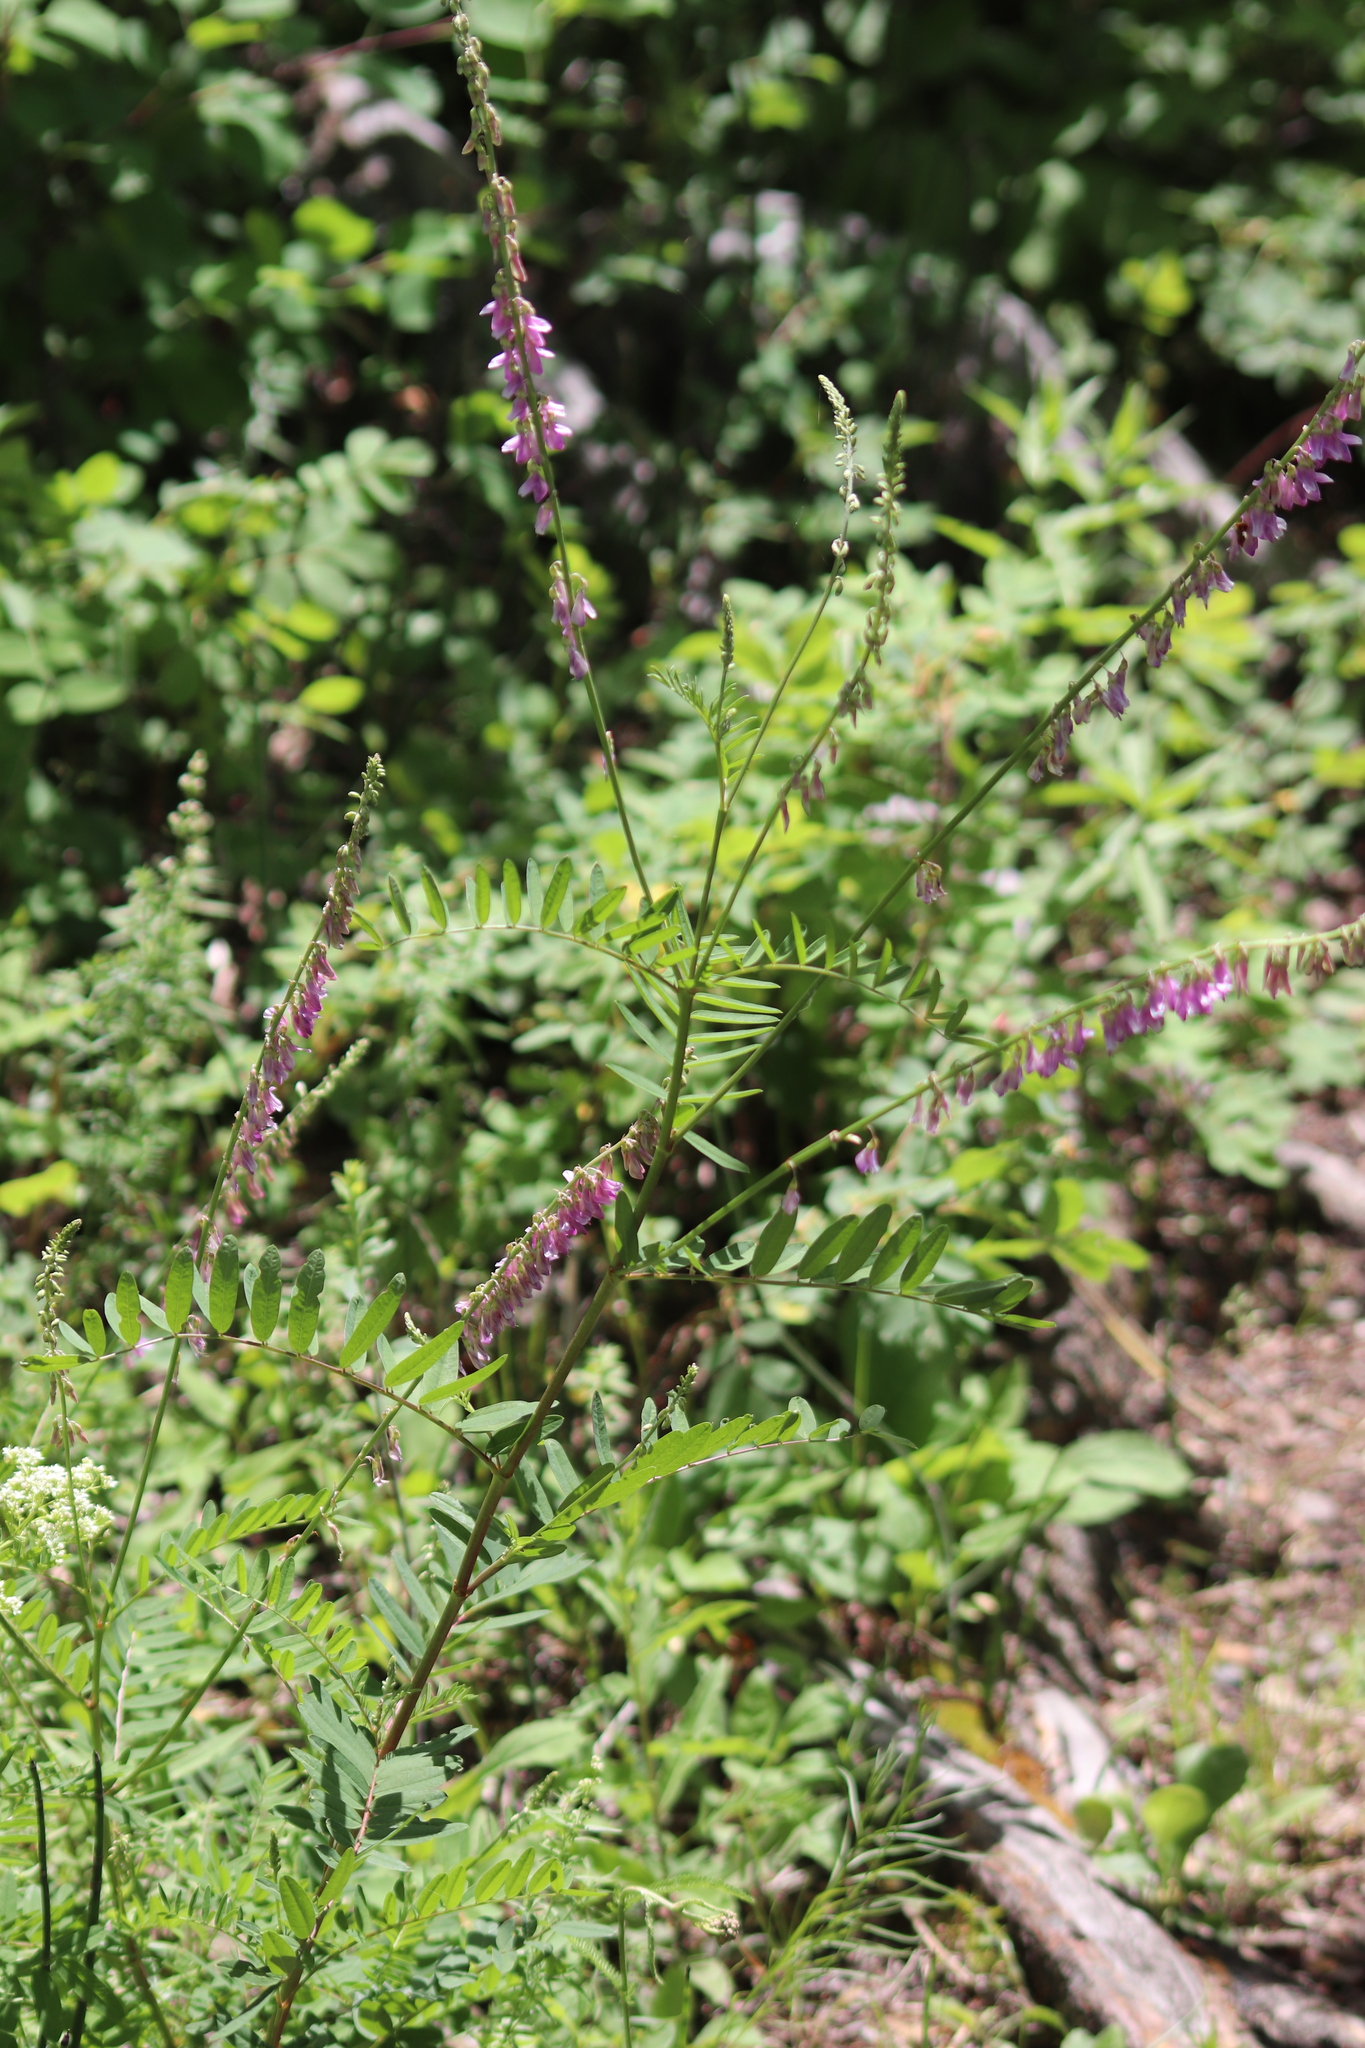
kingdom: Plantae
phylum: Tracheophyta
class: Magnoliopsida
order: Fabales
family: Fabaceae
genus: Hedysarum
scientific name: Hedysarum alpinum
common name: Alpine sweet-vetch
